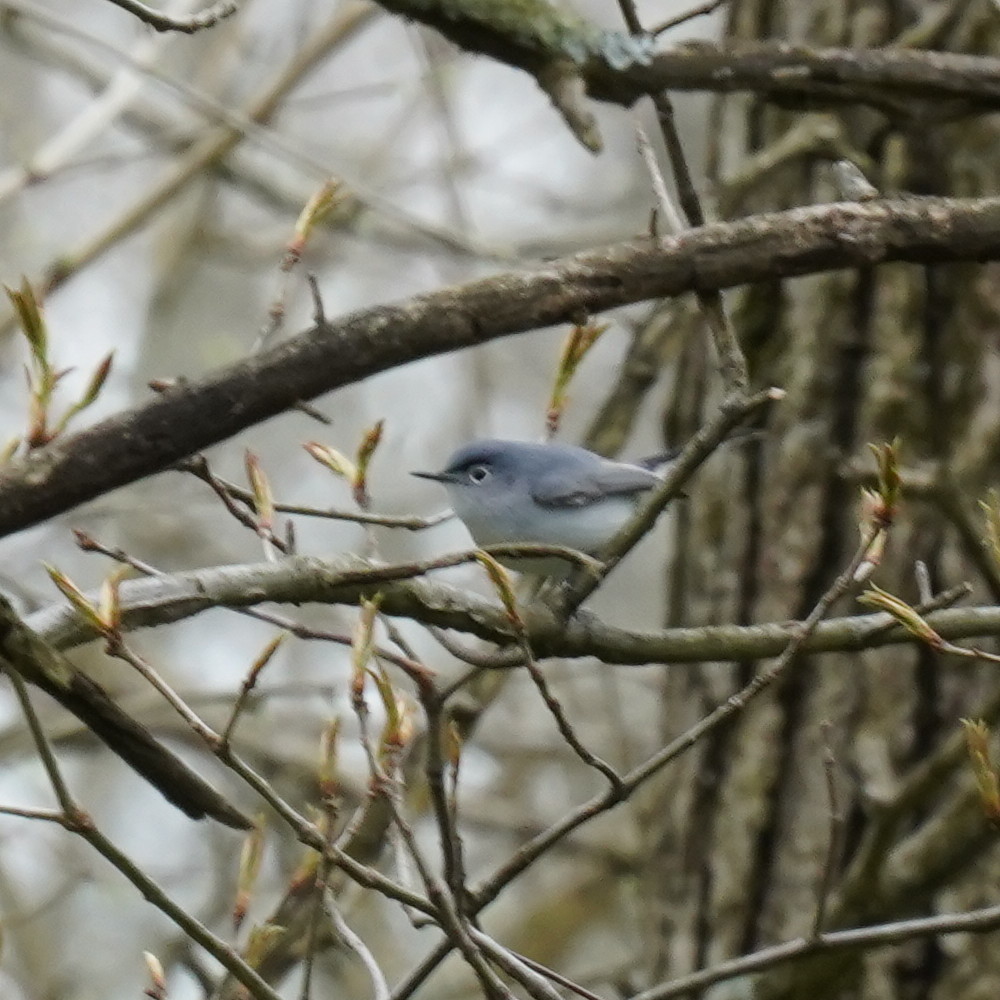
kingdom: Animalia
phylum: Chordata
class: Aves
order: Passeriformes
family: Polioptilidae
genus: Polioptila
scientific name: Polioptila caerulea
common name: Blue-gray gnatcatcher
